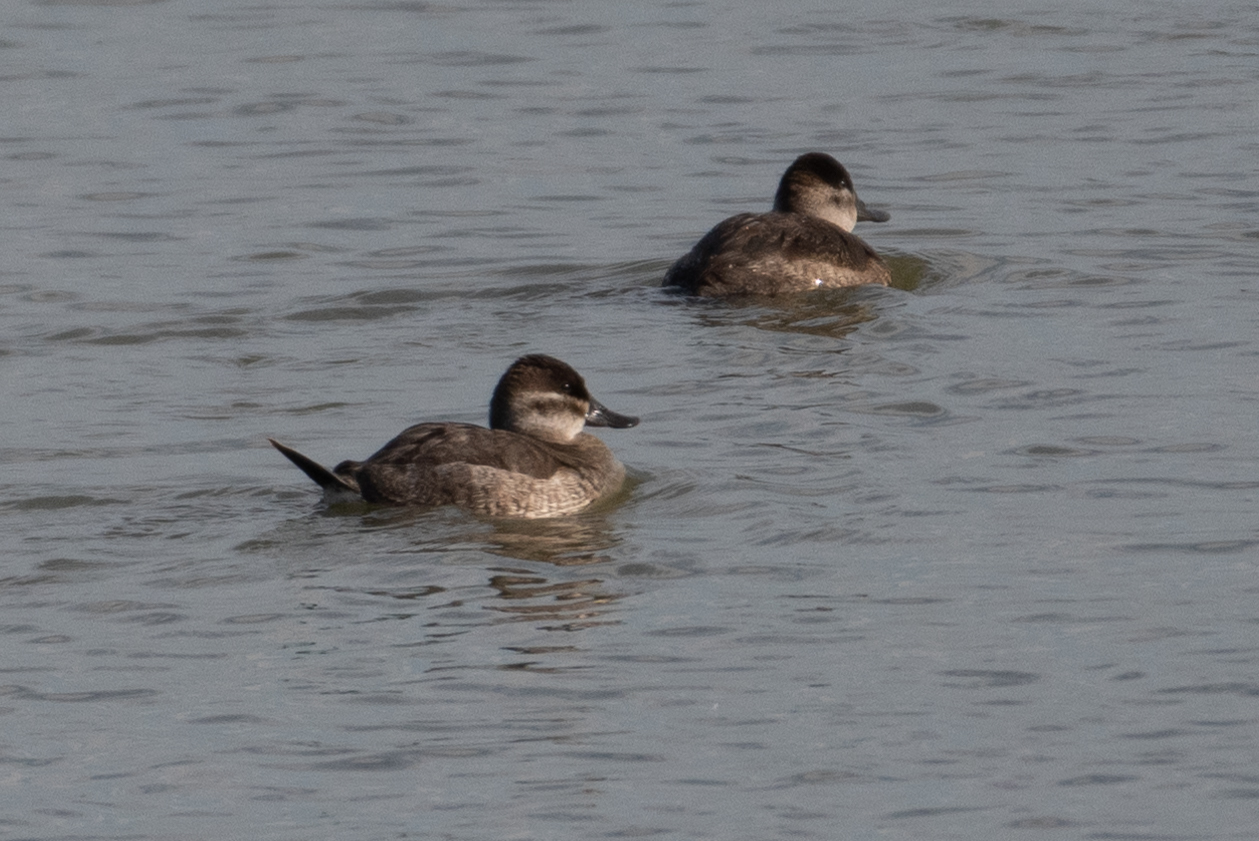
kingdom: Animalia
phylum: Chordata
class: Aves
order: Anseriformes
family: Anatidae
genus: Oxyura
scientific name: Oxyura jamaicensis
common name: Ruddy duck
